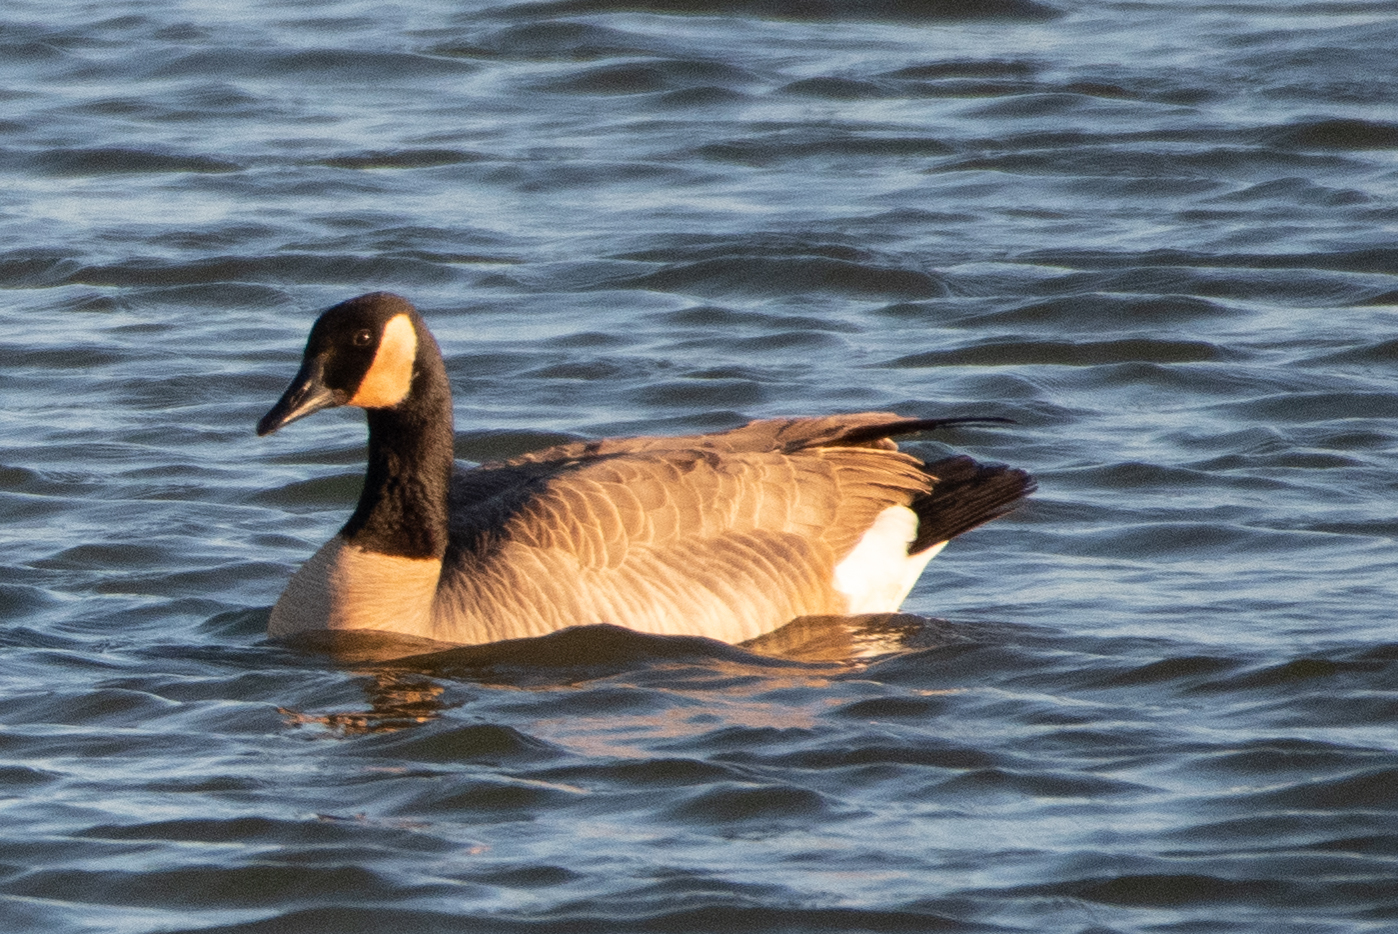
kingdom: Animalia
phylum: Chordata
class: Aves
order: Anseriformes
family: Anatidae
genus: Branta
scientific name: Branta canadensis
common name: Canada goose
